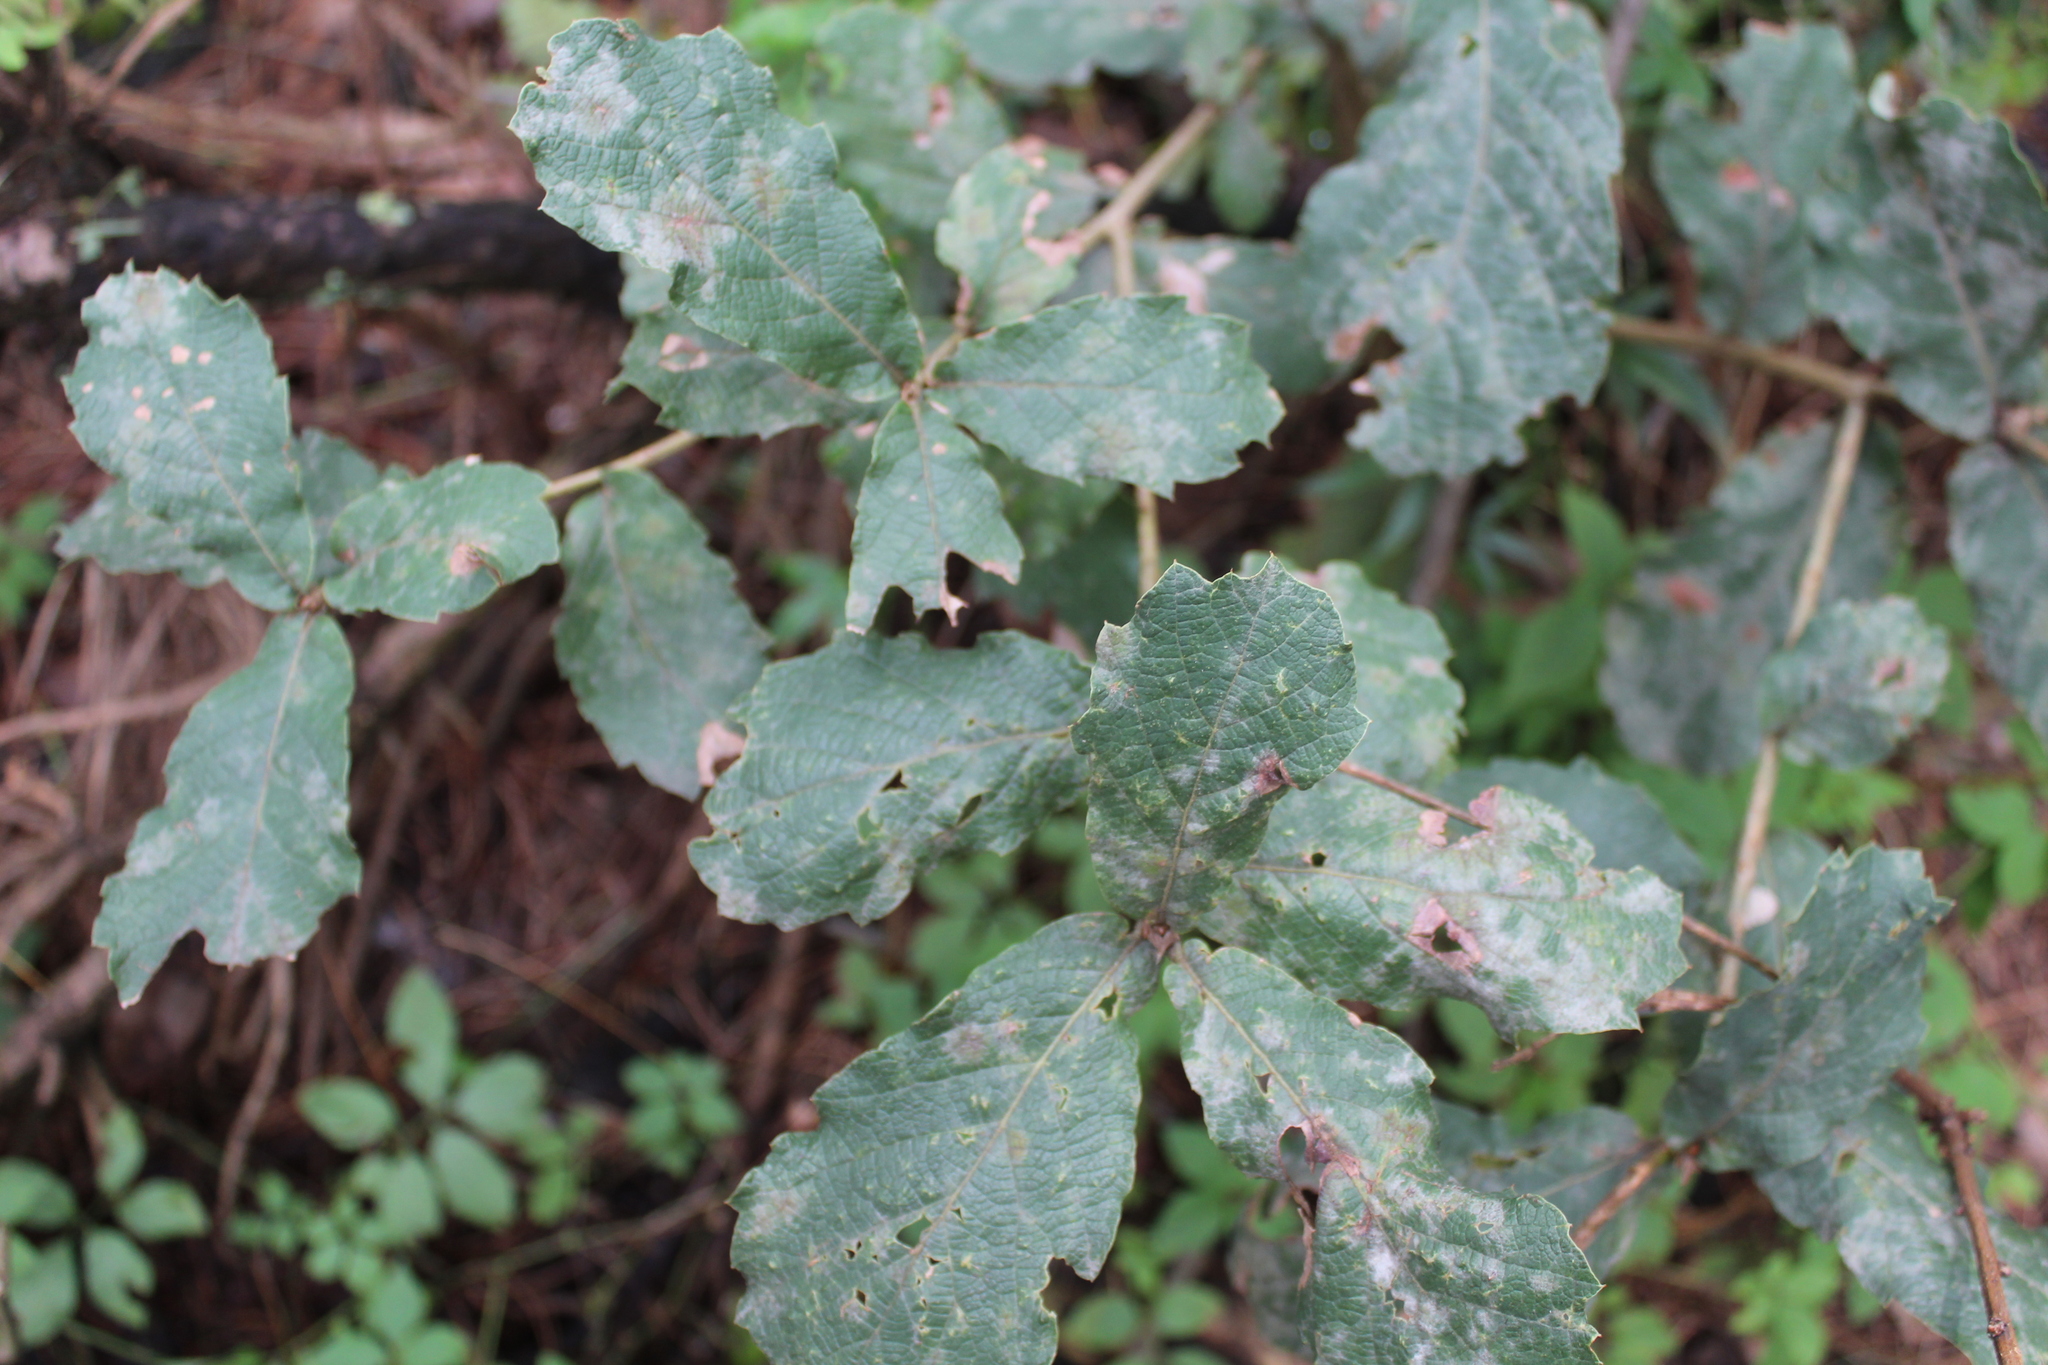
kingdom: Plantae
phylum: Tracheophyta
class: Magnoliopsida
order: Fagales
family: Fagaceae
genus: Quercus
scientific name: Quercus rugosa
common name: Netleaf oak
